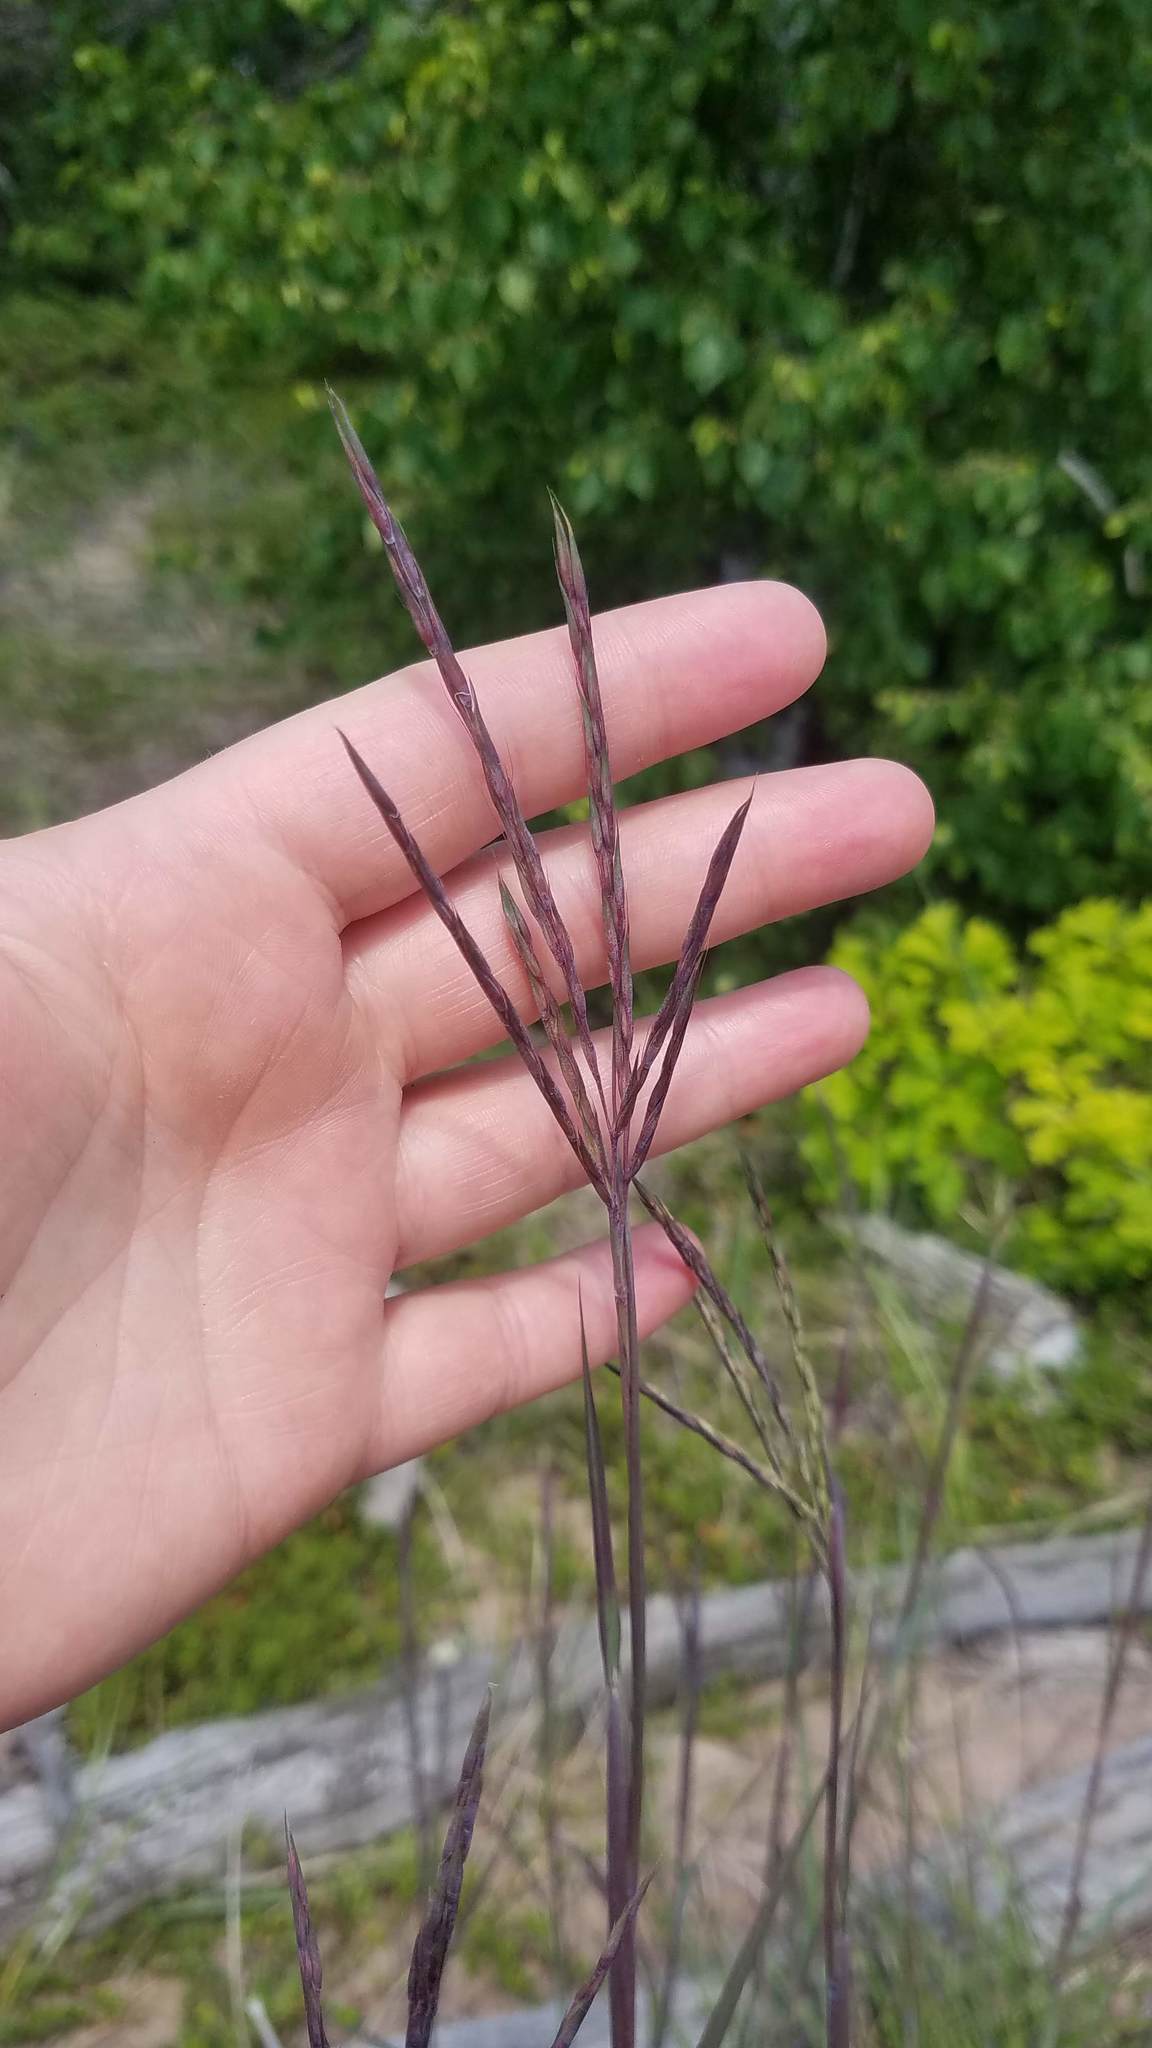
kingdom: Plantae
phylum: Tracheophyta
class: Liliopsida
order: Poales
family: Poaceae
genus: Andropogon
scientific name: Andropogon gerardi
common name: Big bluestem
